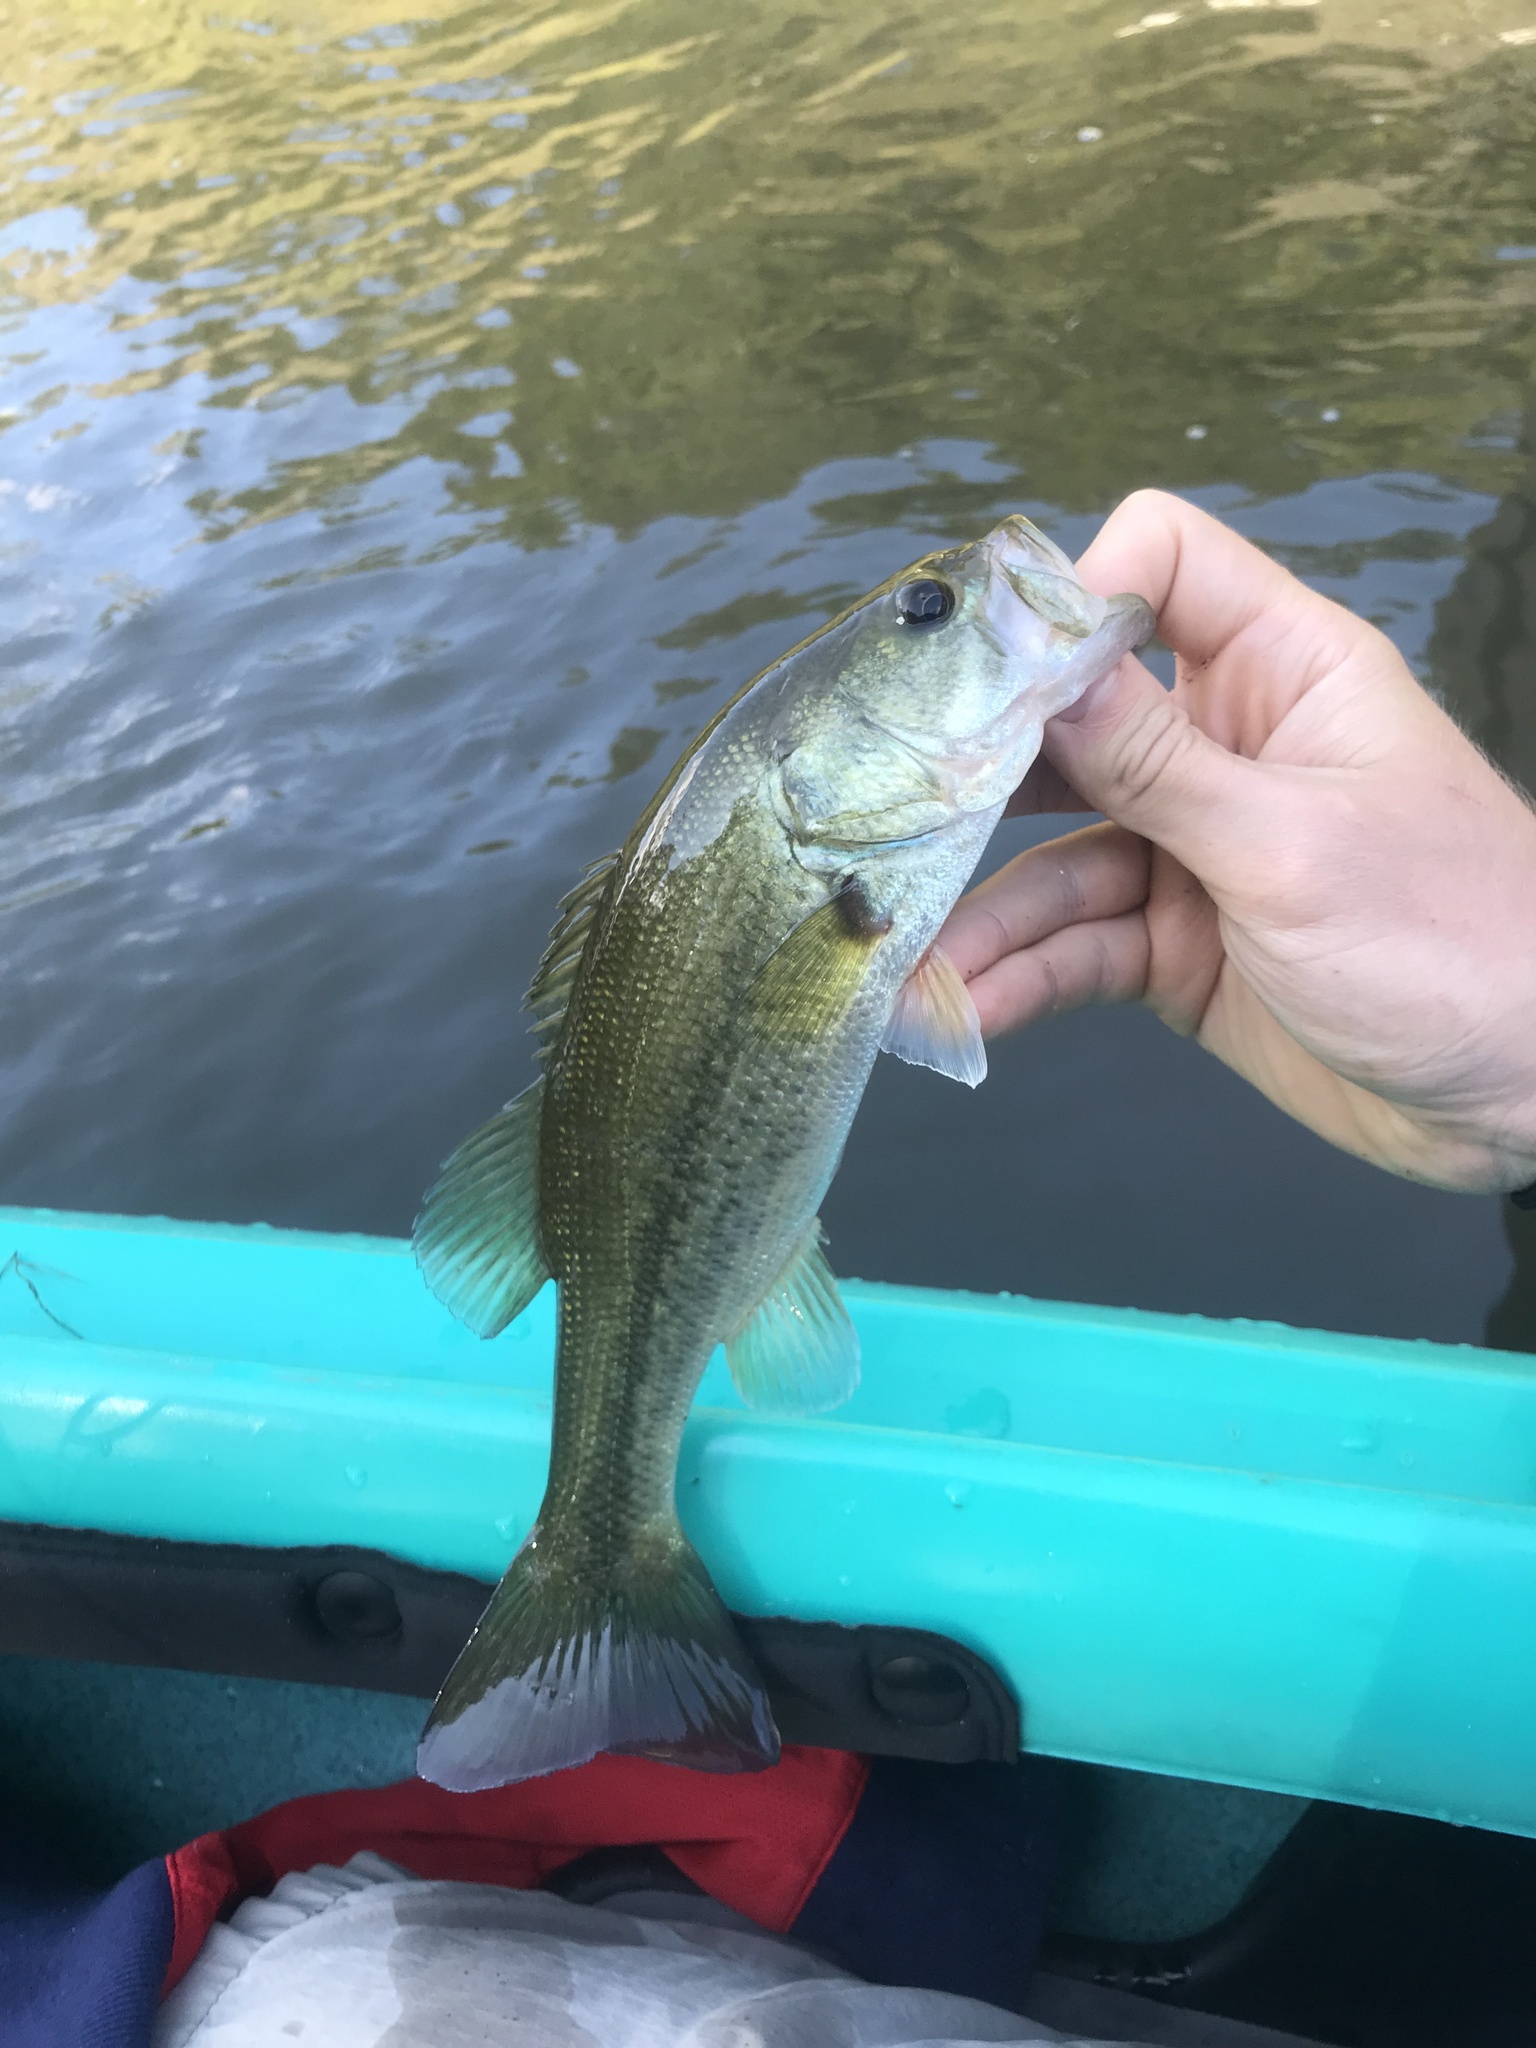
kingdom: Animalia
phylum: Chordata
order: Perciformes
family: Centrarchidae
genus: Micropterus
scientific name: Micropterus
